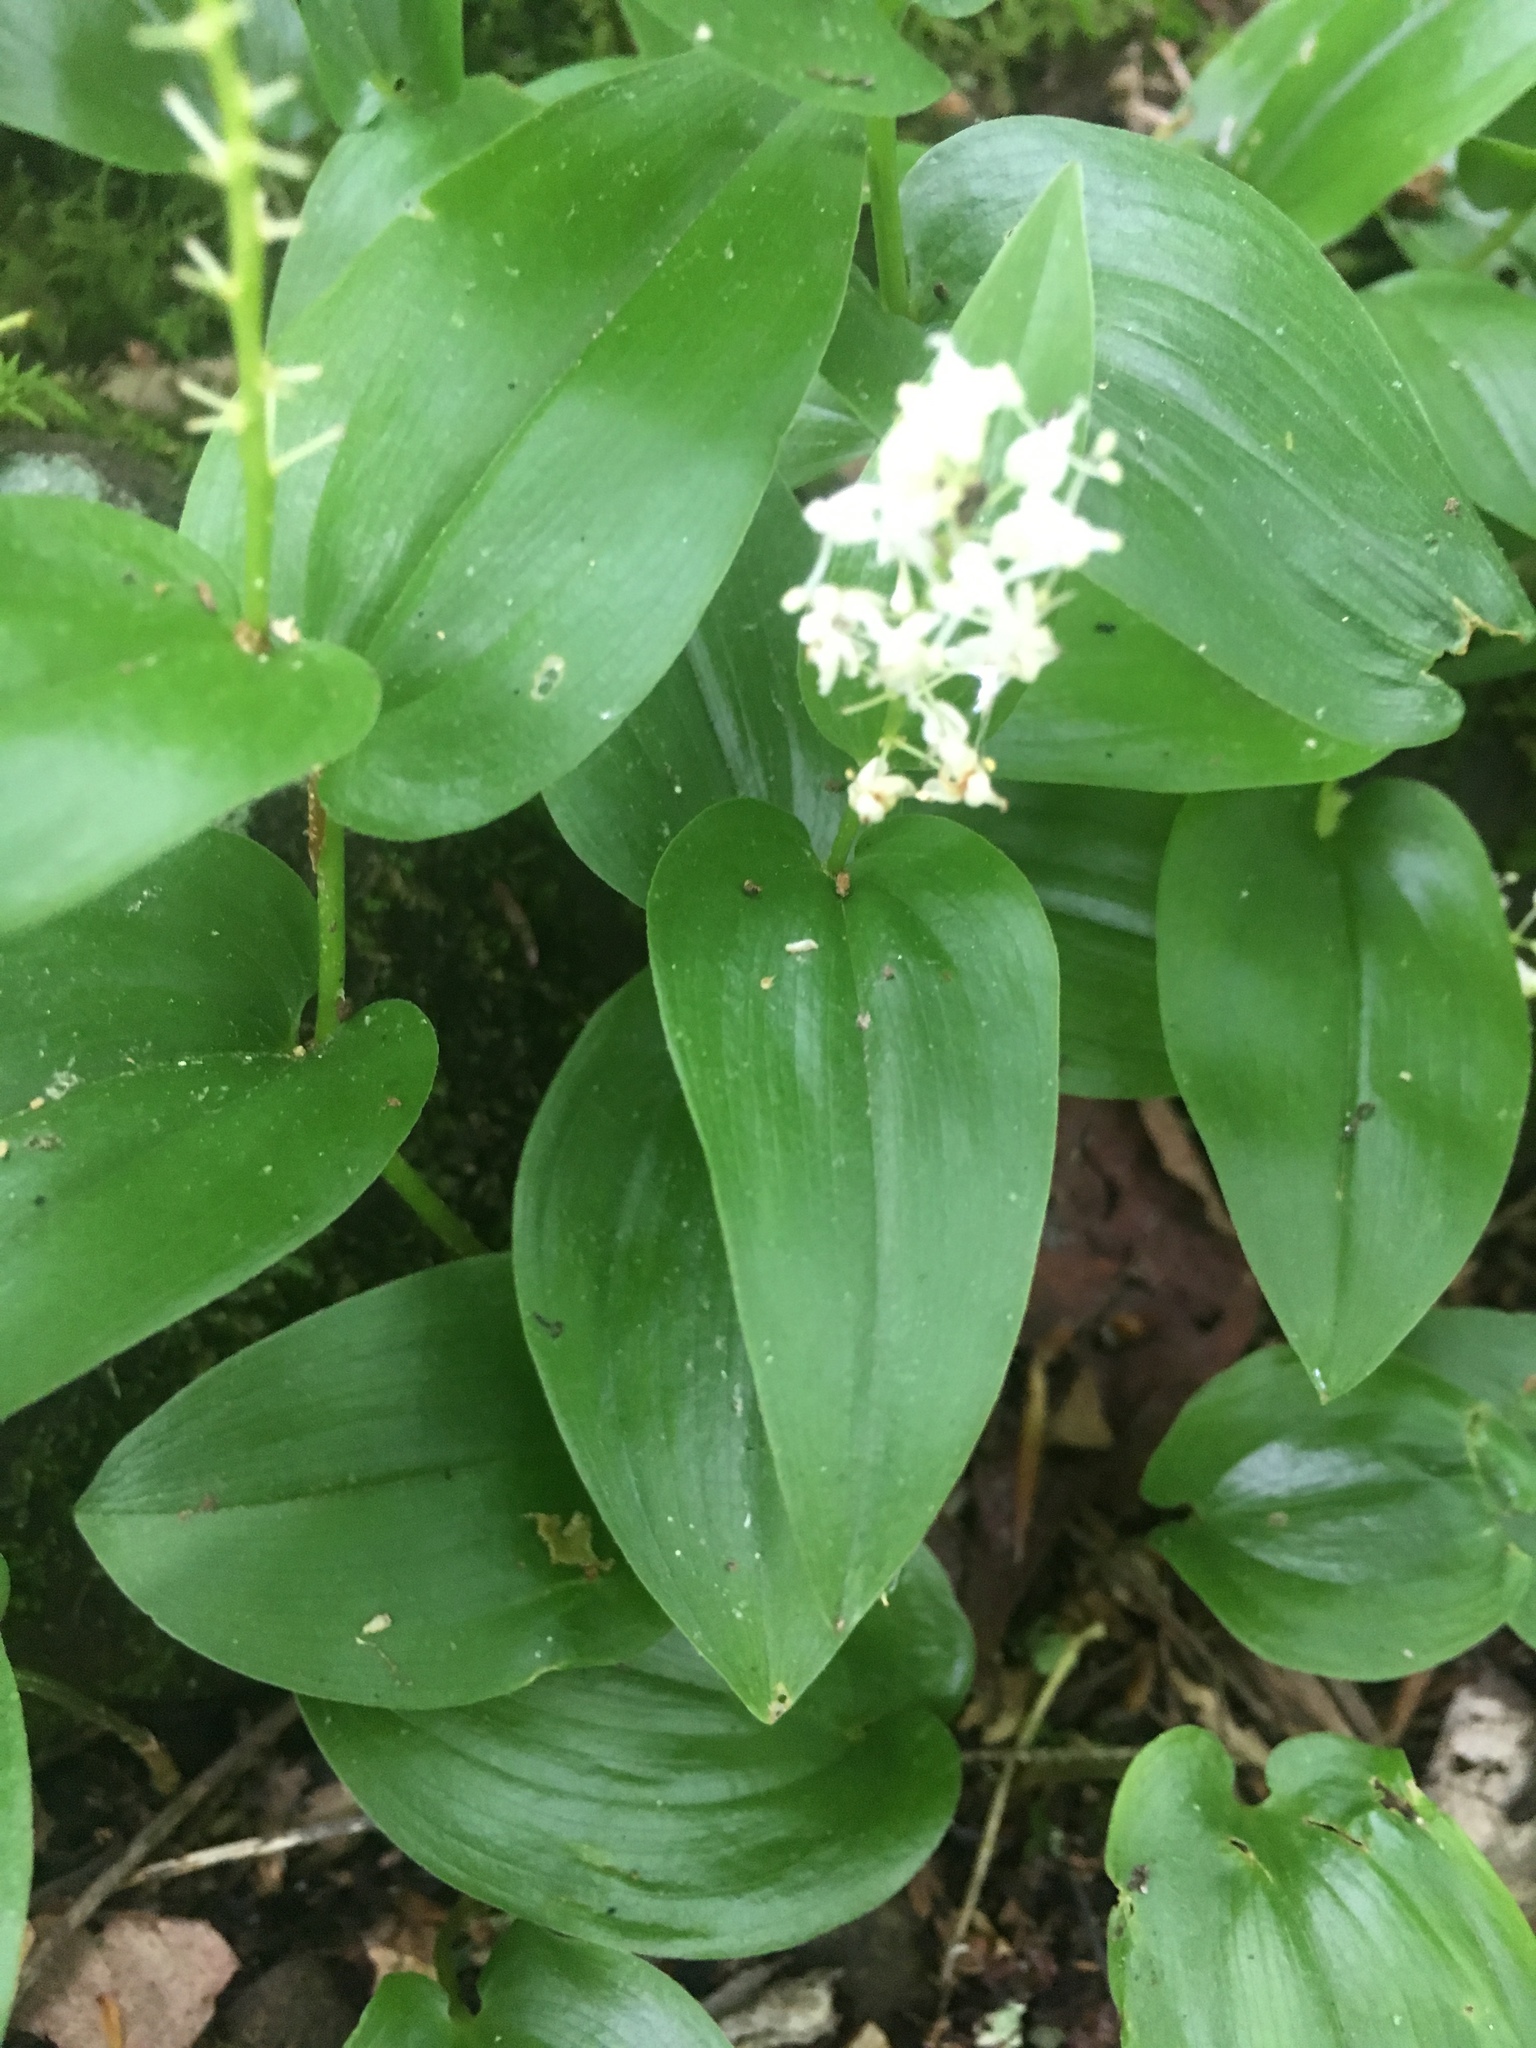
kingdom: Plantae
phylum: Tracheophyta
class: Liliopsida
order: Asparagales
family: Asparagaceae
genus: Maianthemum
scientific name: Maianthemum canadense
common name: False lily-of-the-valley
